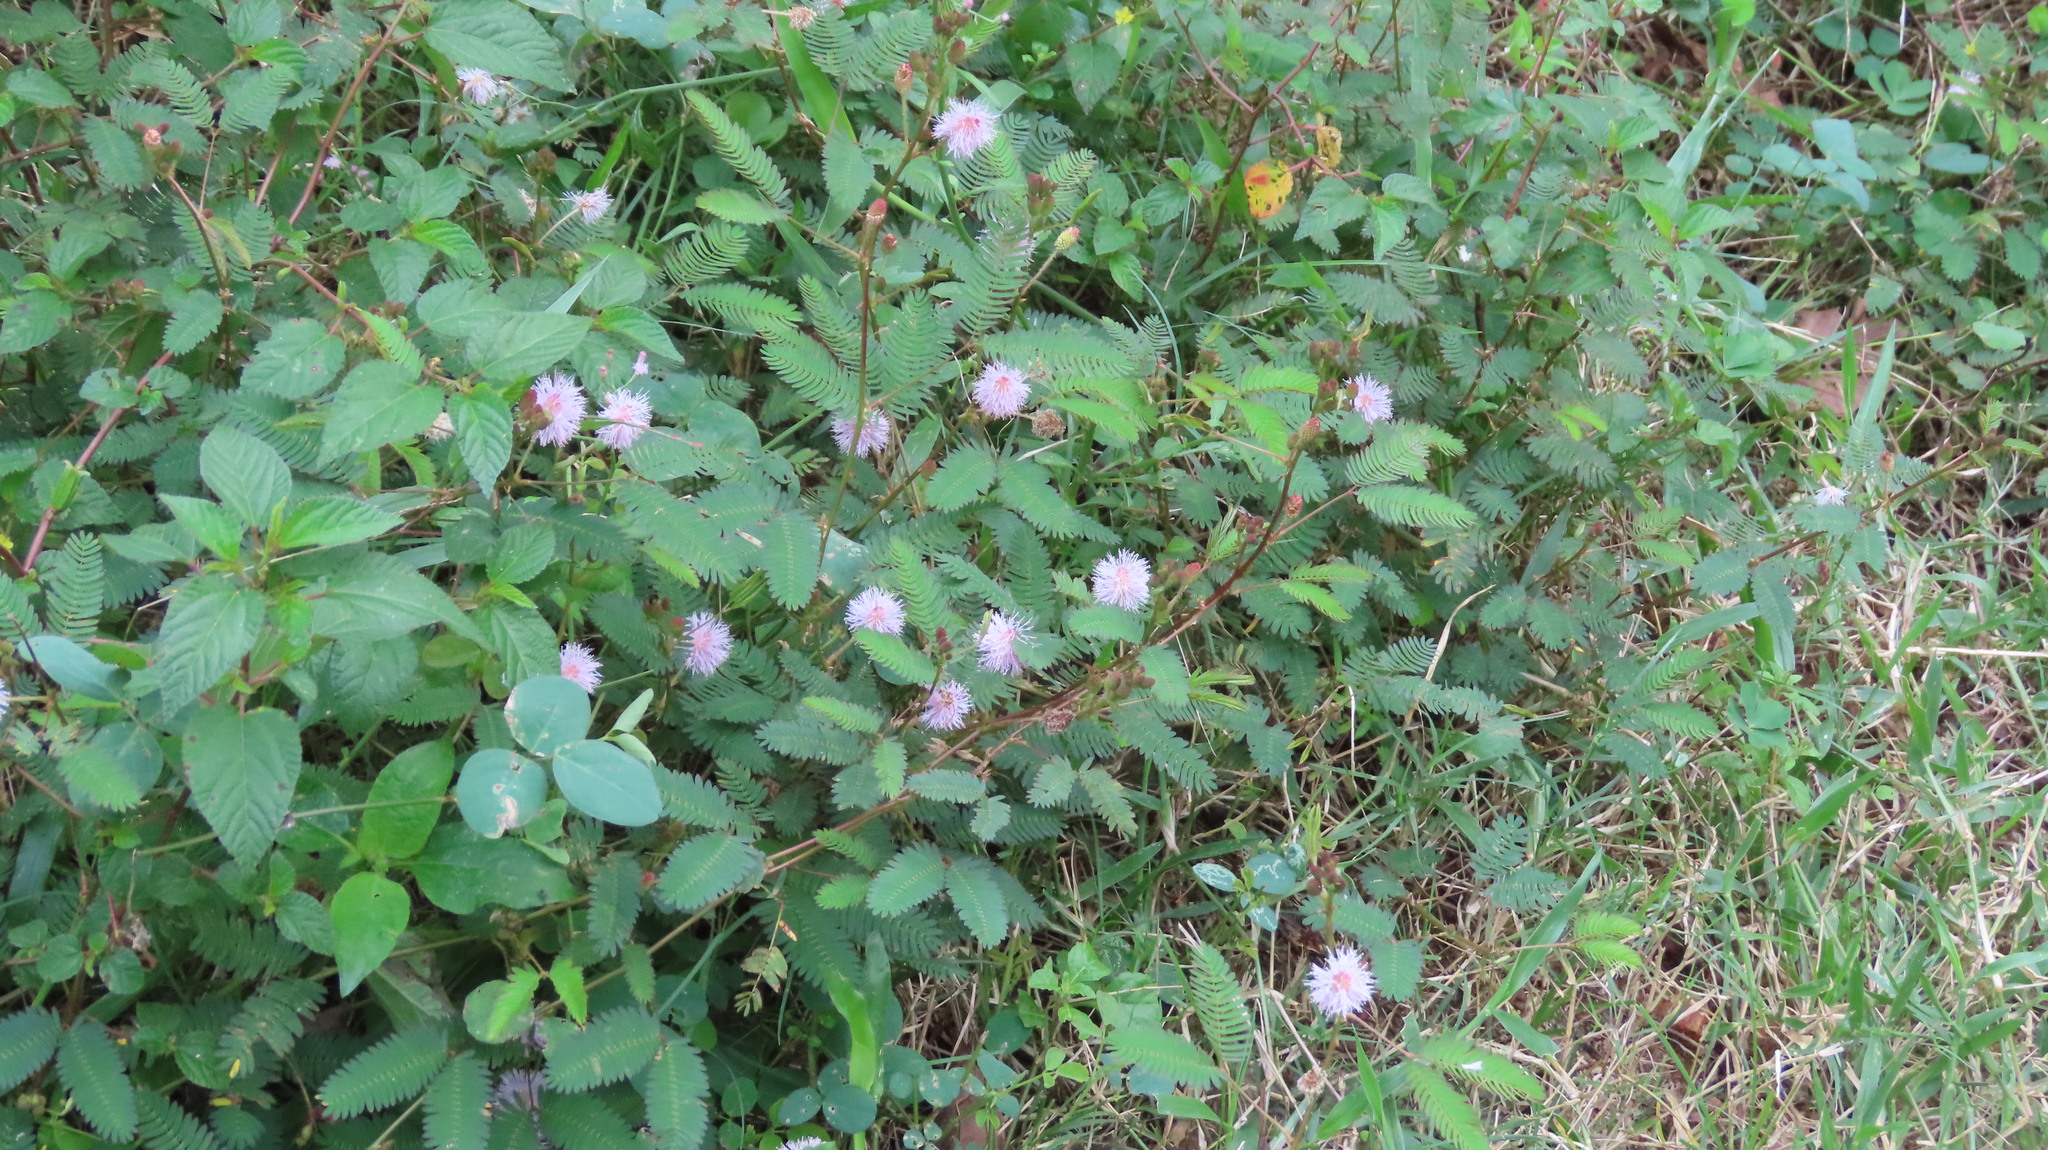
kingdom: Plantae
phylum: Tracheophyta
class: Magnoliopsida
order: Fabales
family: Fabaceae
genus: Mimosa
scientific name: Mimosa pudica
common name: Sensitive plant
